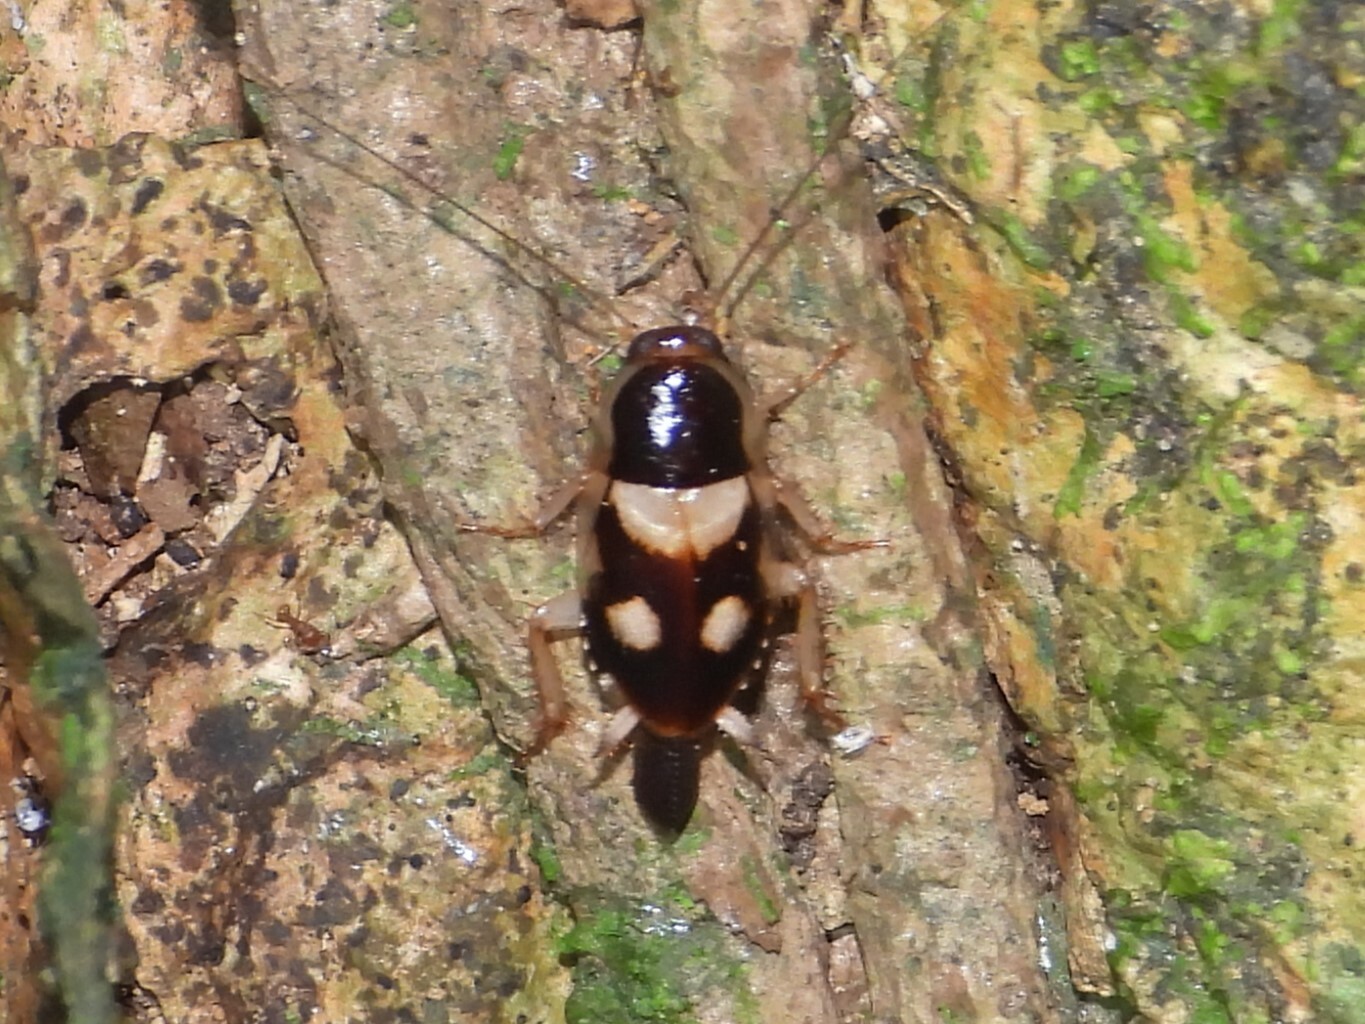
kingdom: Animalia
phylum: Arthropoda
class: Insecta
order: Blattodea
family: Ectobiidae
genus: Euthlastoblatta
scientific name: Euthlastoblatta
